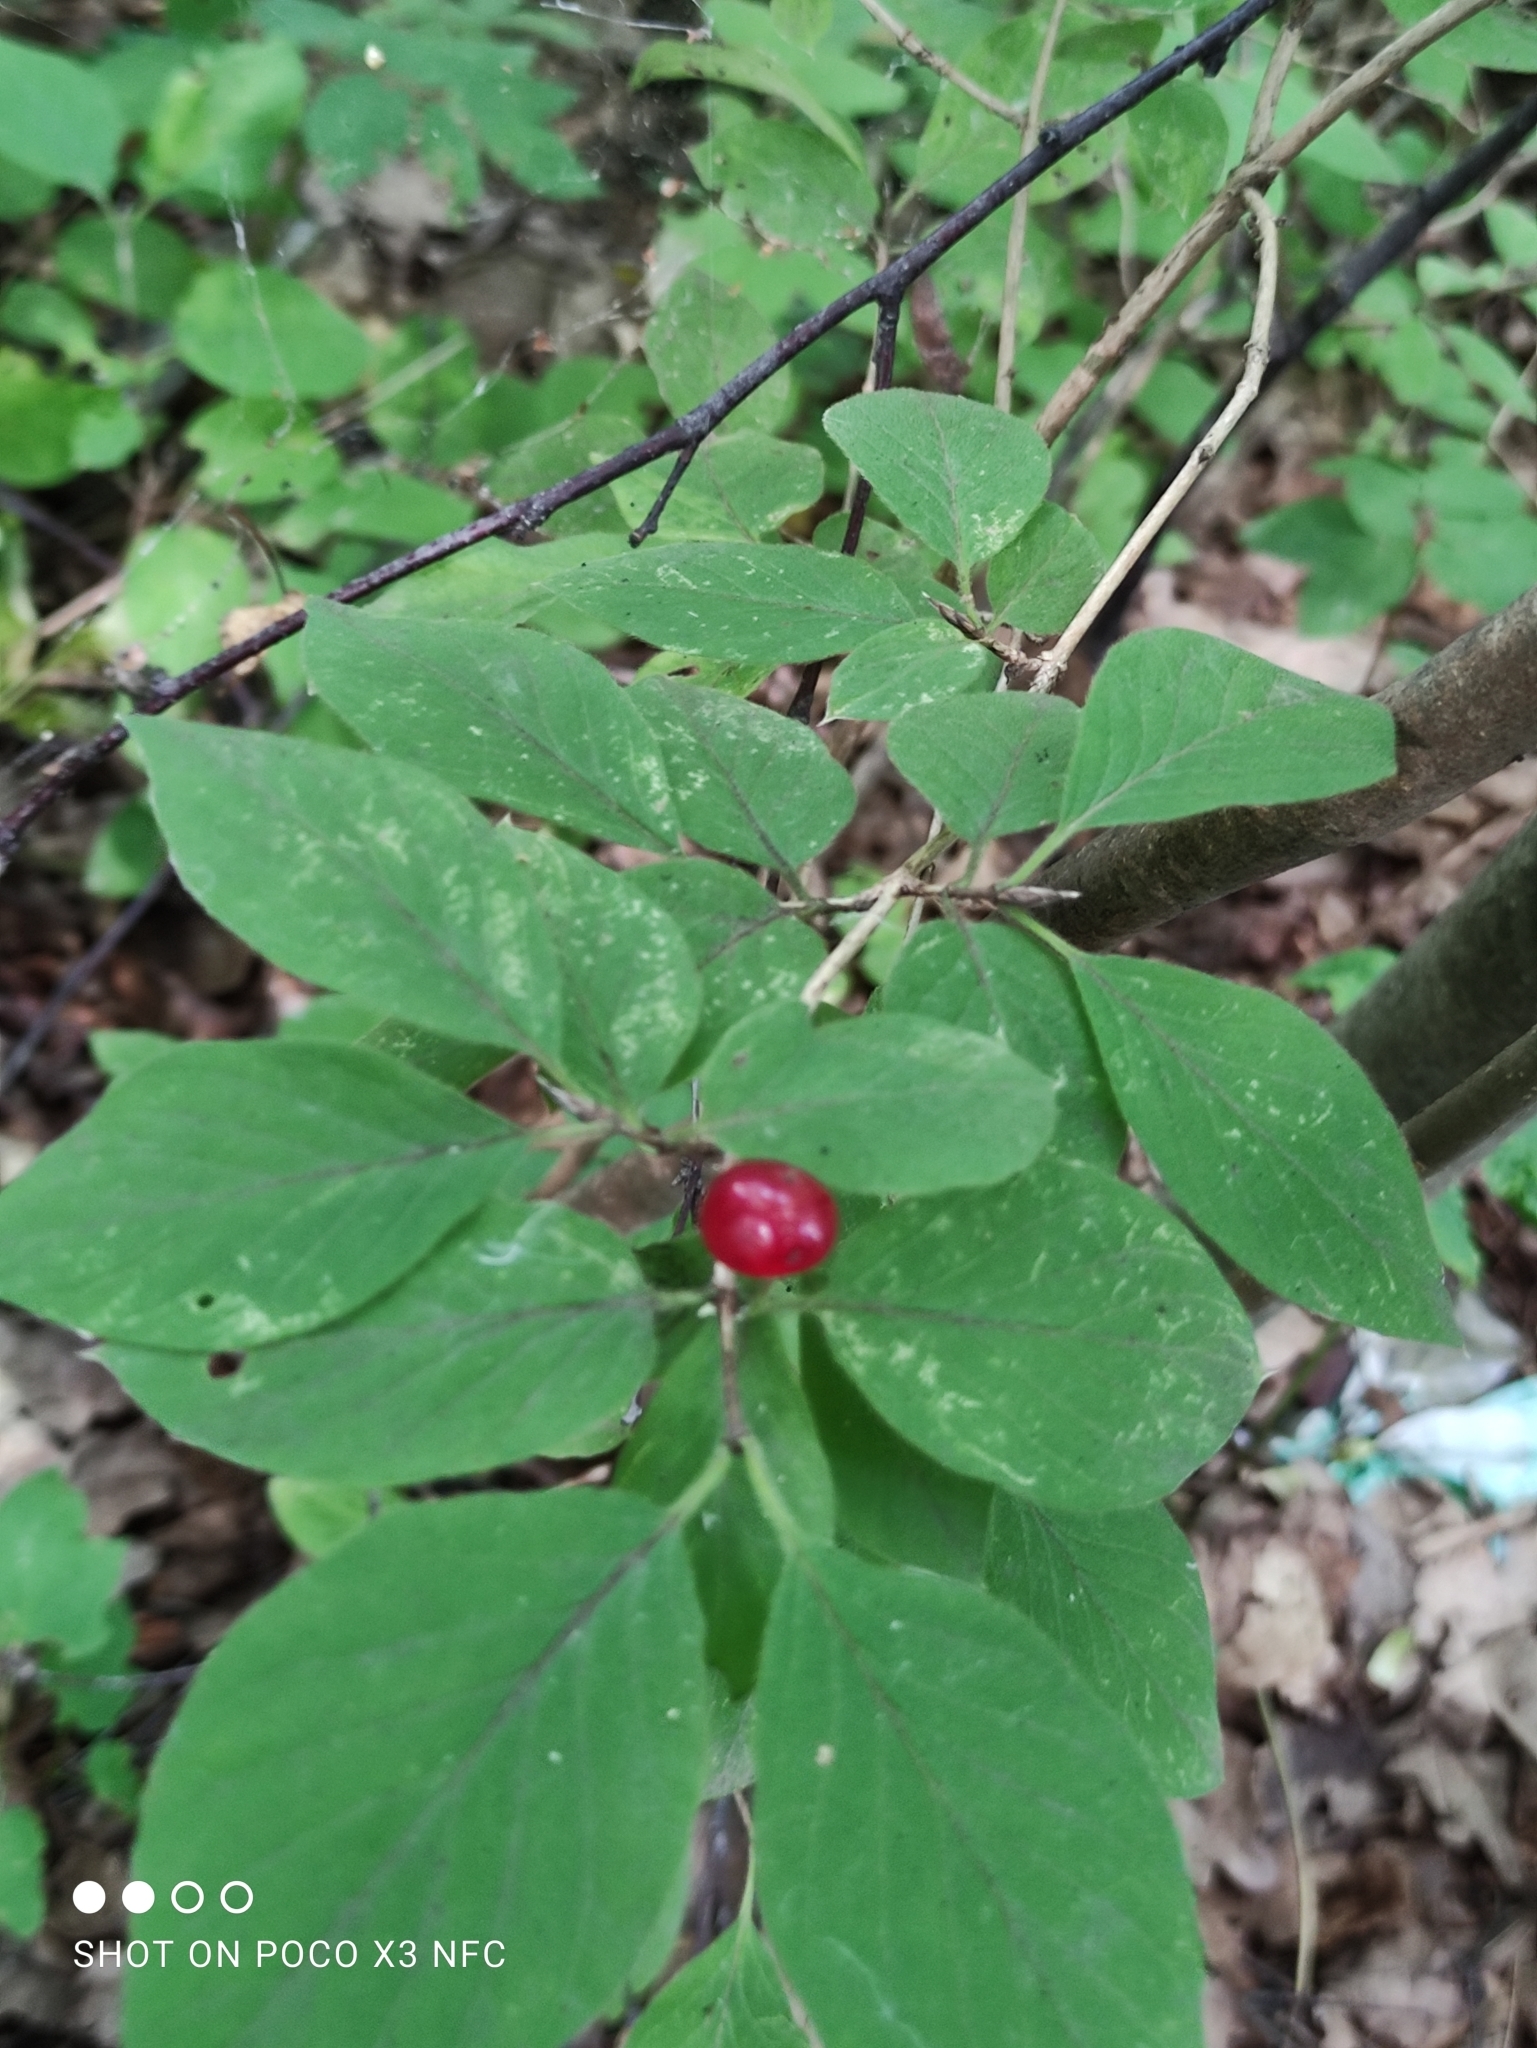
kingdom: Plantae
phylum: Tracheophyta
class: Magnoliopsida
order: Dipsacales
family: Caprifoliaceae
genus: Lonicera
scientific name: Lonicera xylosteum
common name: Fly honeysuckle
